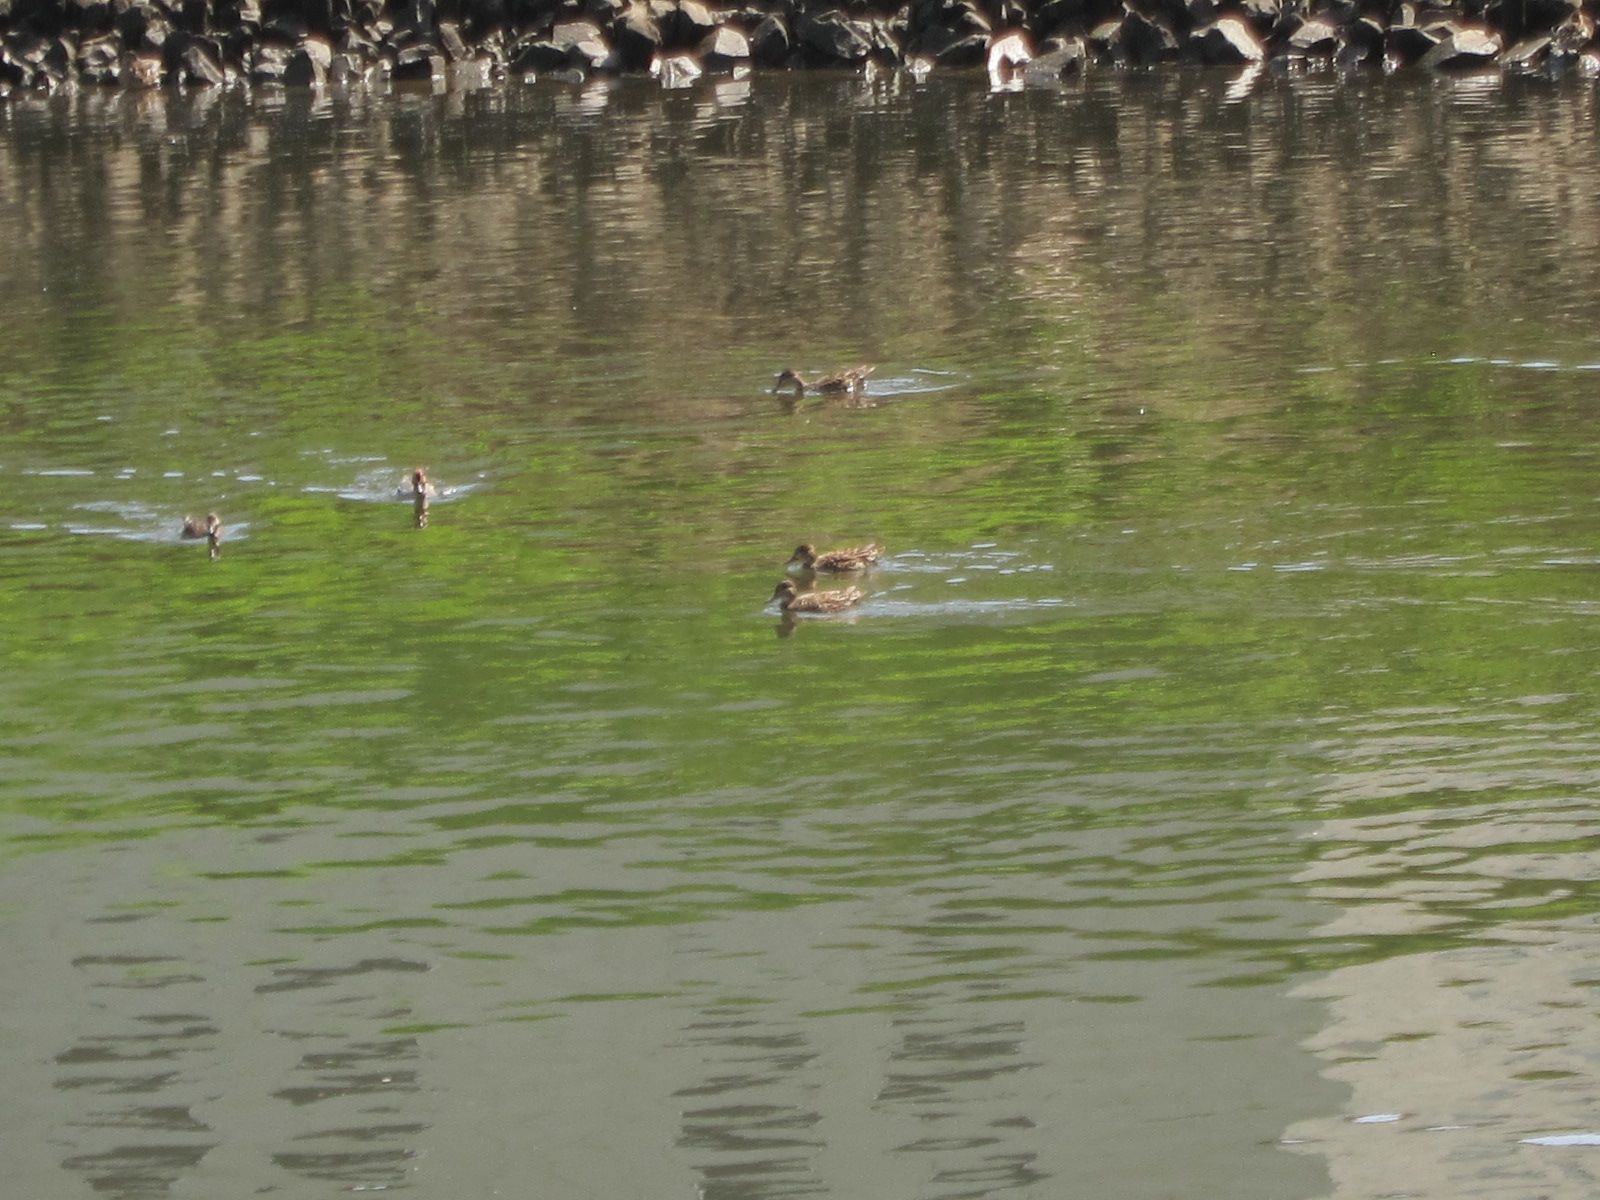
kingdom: Animalia
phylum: Chordata
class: Aves
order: Anseriformes
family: Anatidae
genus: Anas
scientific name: Anas crecca
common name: Eurasian teal
